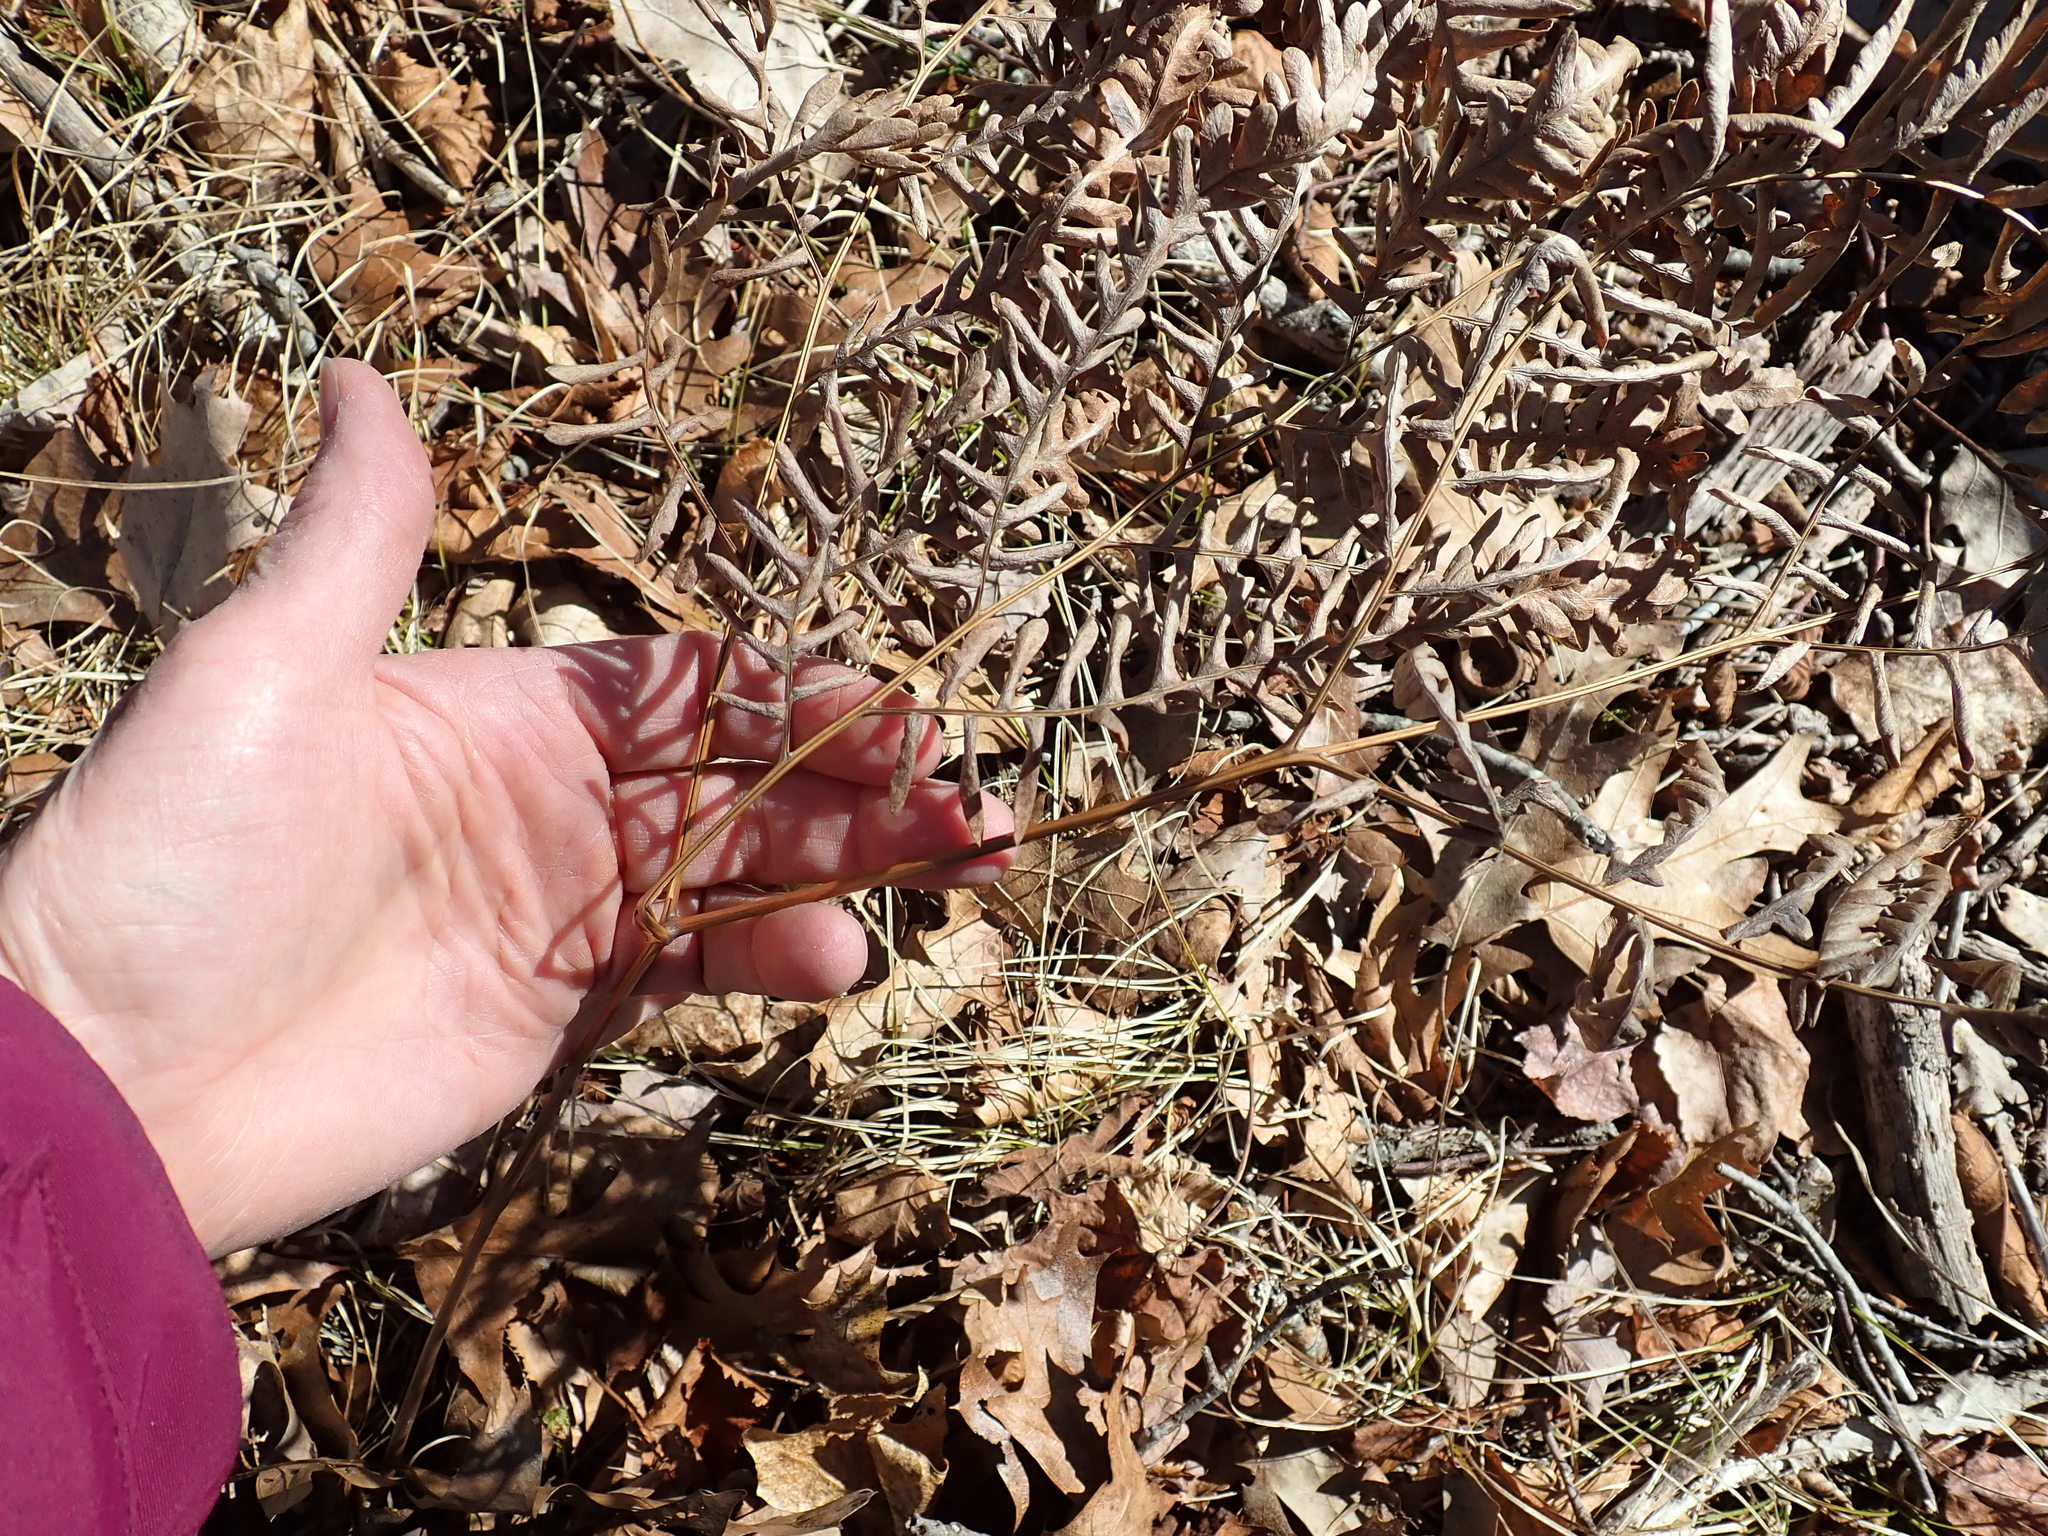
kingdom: Plantae
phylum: Tracheophyta
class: Polypodiopsida
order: Polypodiales
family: Dennstaedtiaceae
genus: Pteridium
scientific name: Pteridium aquilinum
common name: Bracken
